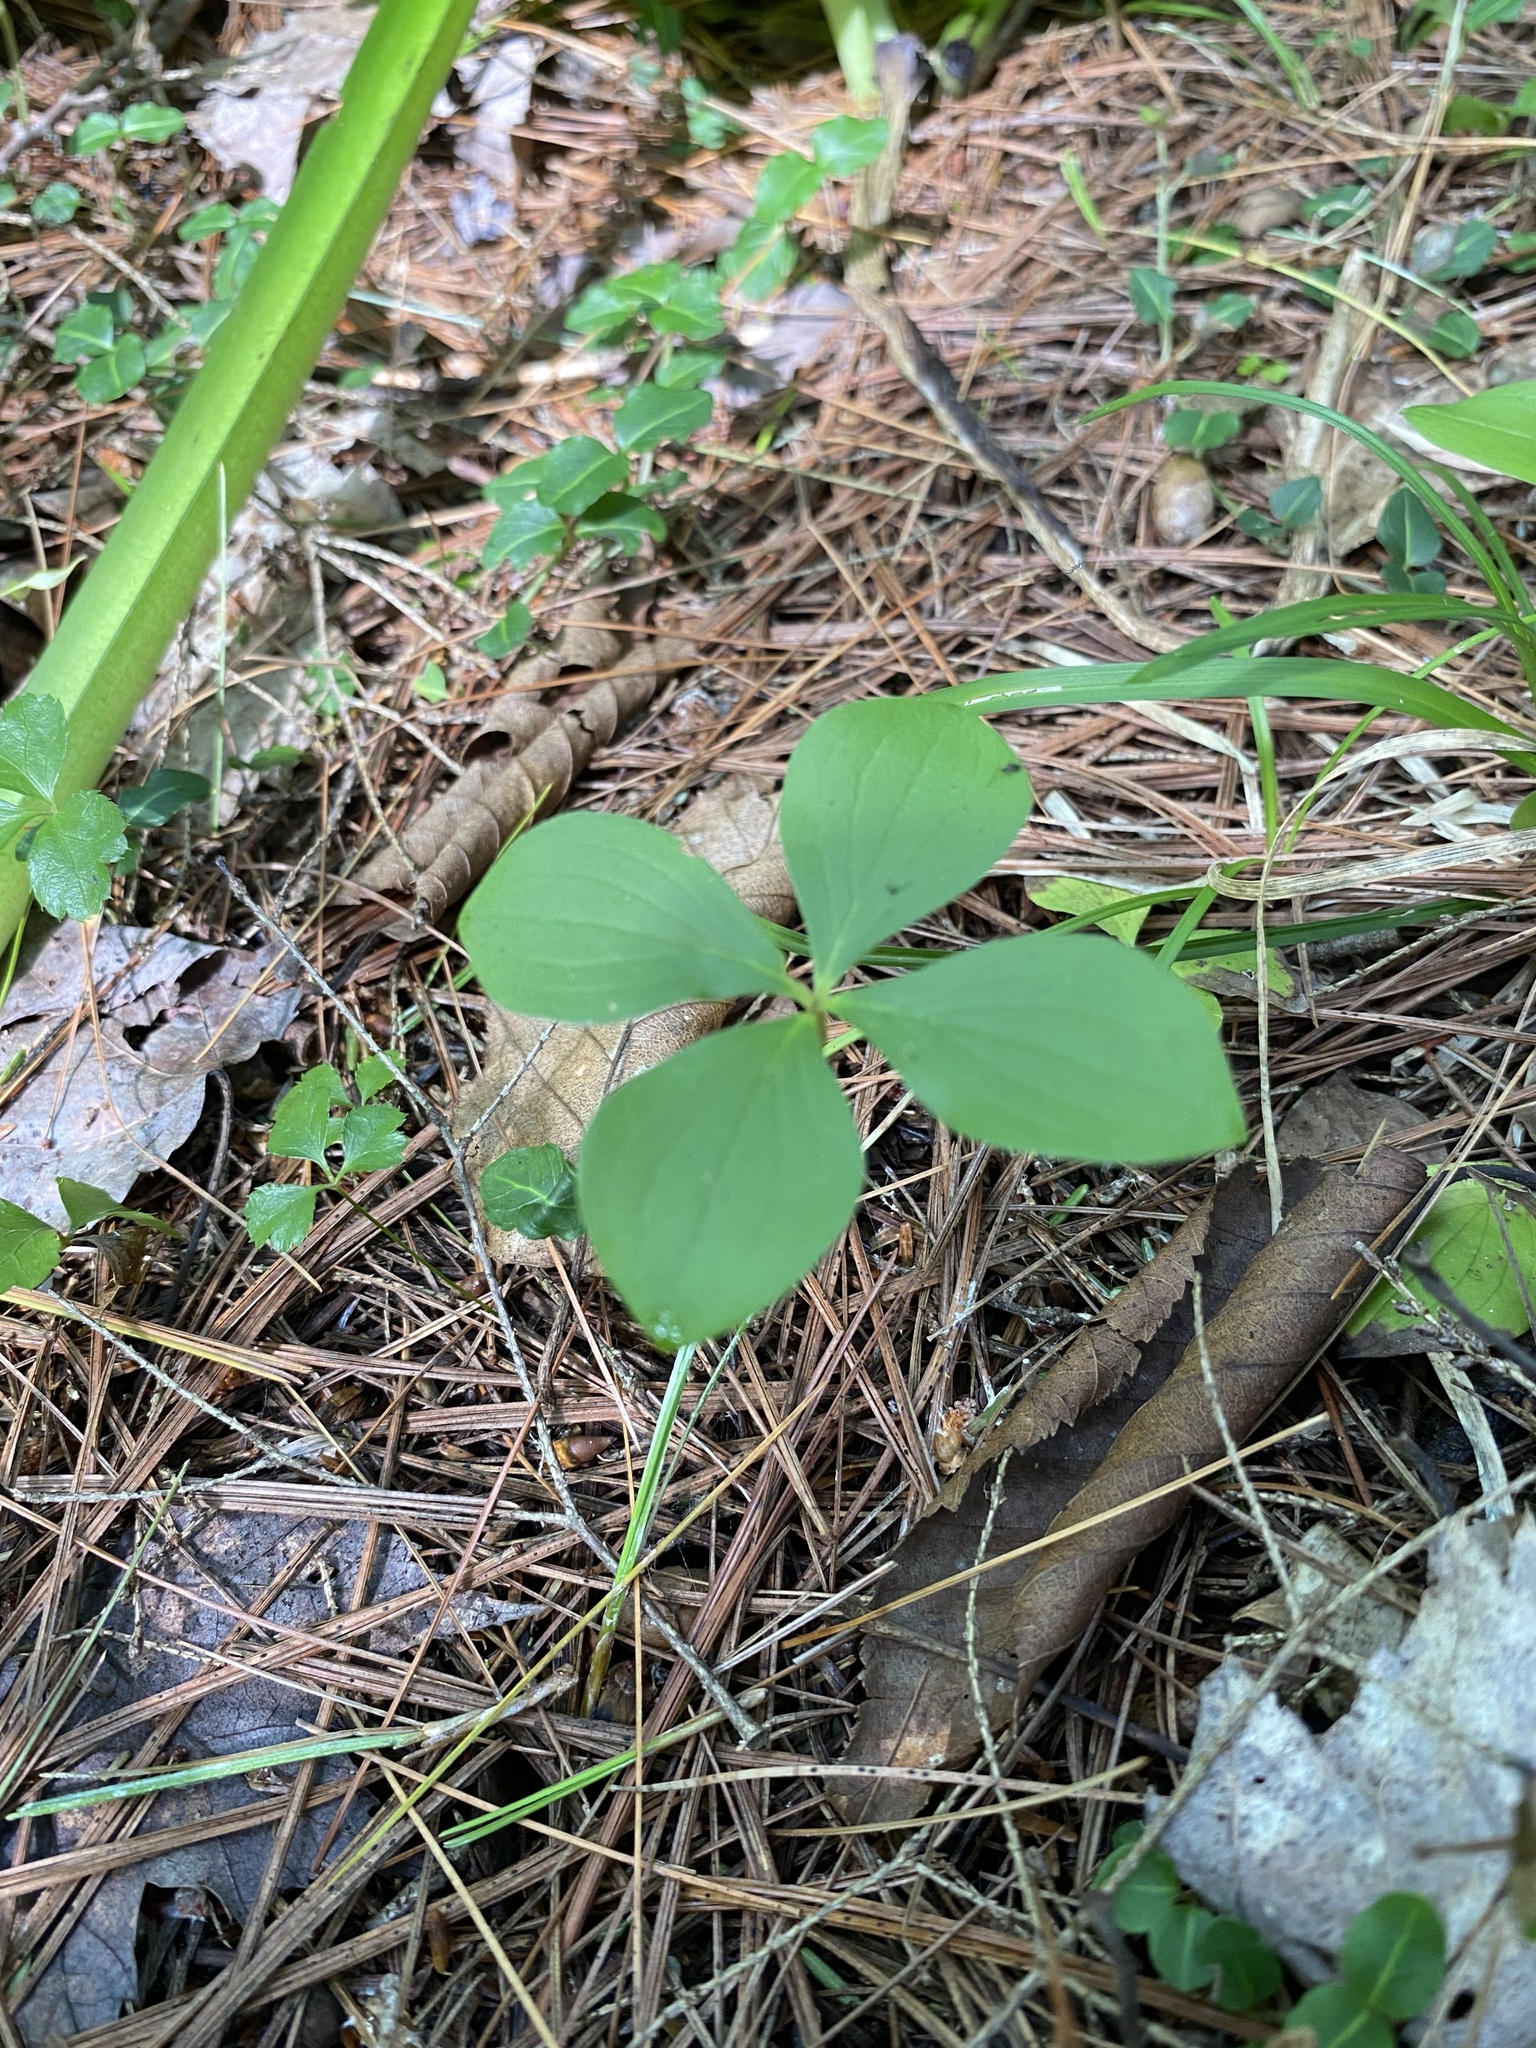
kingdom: Plantae
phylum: Tracheophyta
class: Magnoliopsida
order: Cornales
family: Cornaceae
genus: Cornus
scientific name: Cornus canadensis
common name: Creeping dogwood
